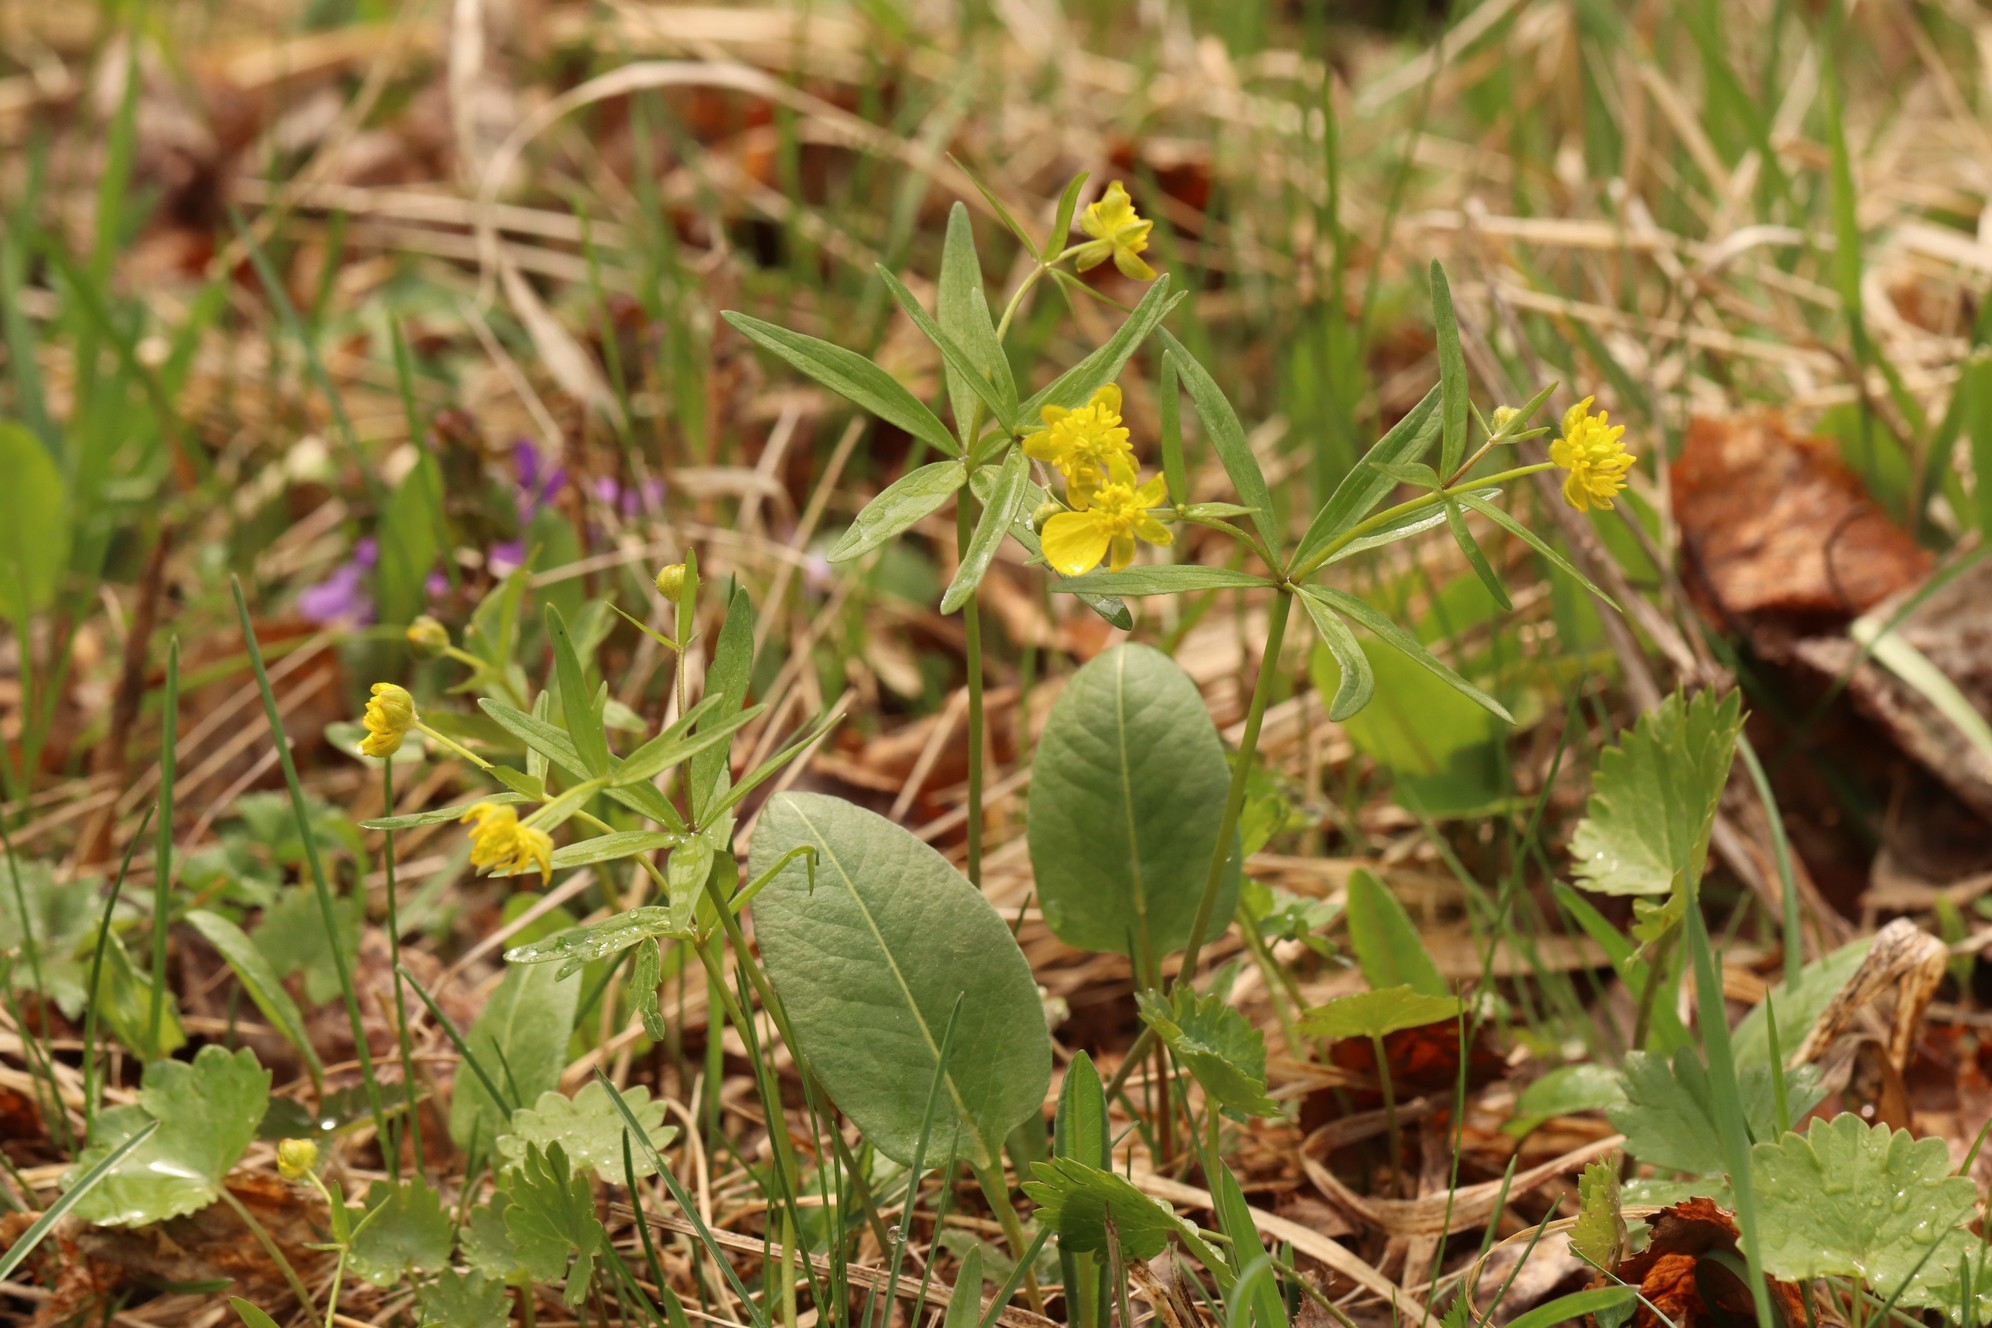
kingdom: Plantae
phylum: Tracheophyta
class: Magnoliopsida
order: Ranunculales
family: Ranunculaceae
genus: Ranunculus
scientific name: Ranunculus monophyllus
